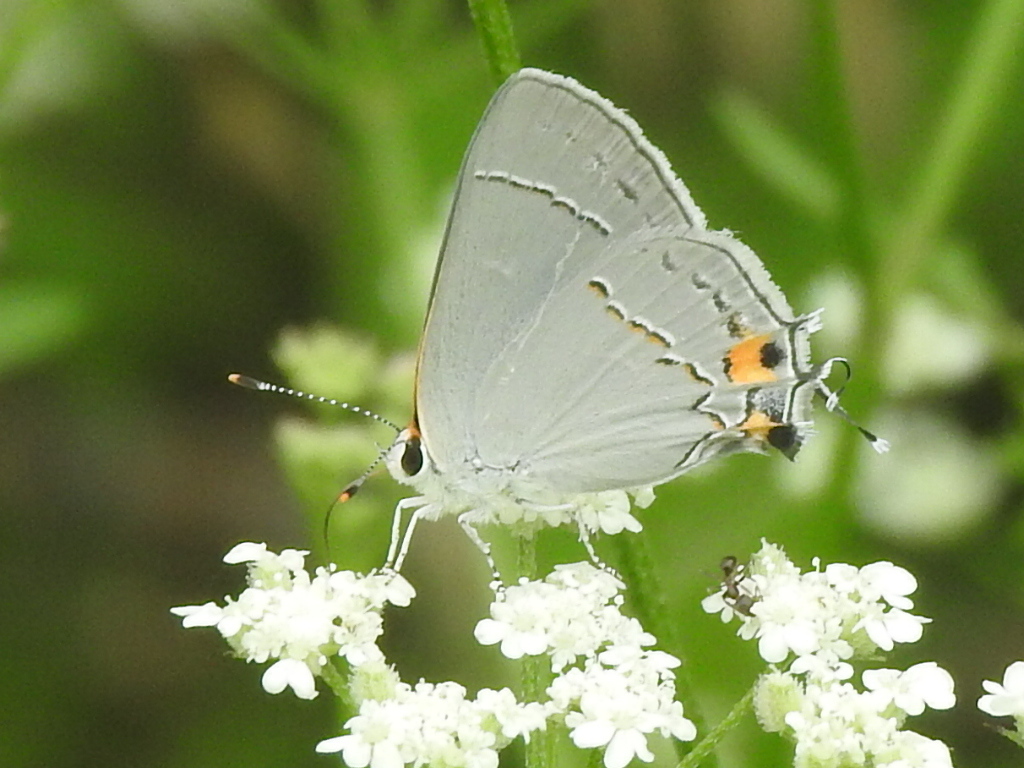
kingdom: Animalia
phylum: Arthropoda
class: Insecta
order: Lepidoptera
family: Lycaenidae
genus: Strymon
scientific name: Strymon melinus
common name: Gray hairstreak
